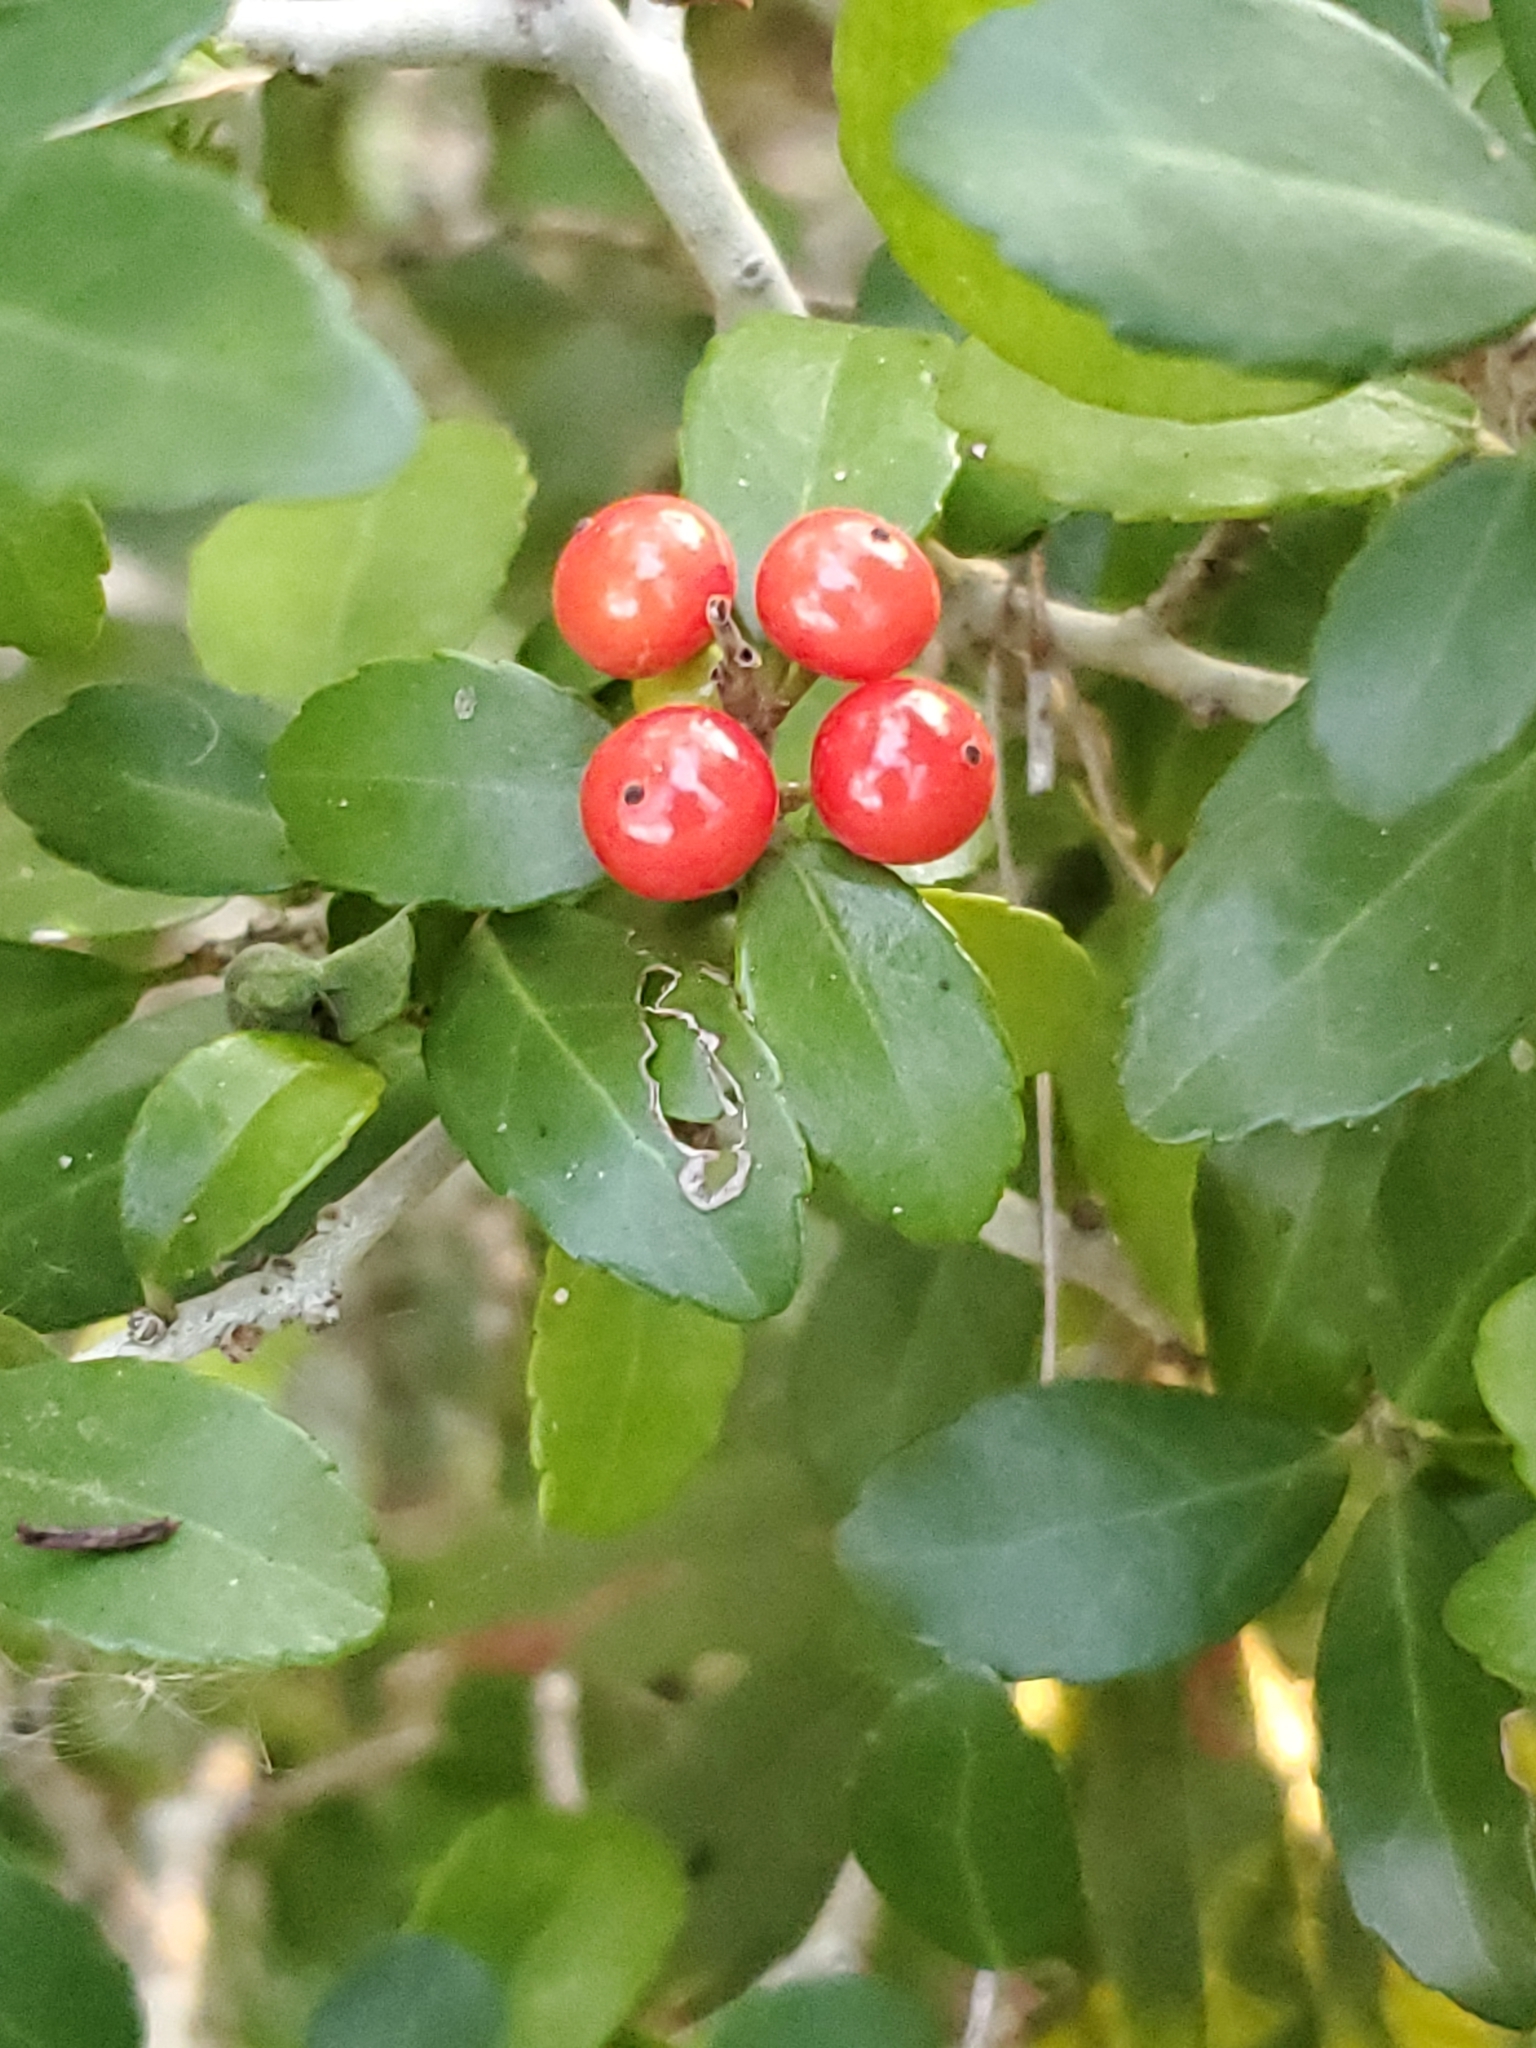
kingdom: Plantae
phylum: Tracheophyta
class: Magnoliopsida
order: Aquifoliales
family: Aquifoliaceae
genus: Ilex
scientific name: Ilex vomitoria
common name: Yaupon holly
